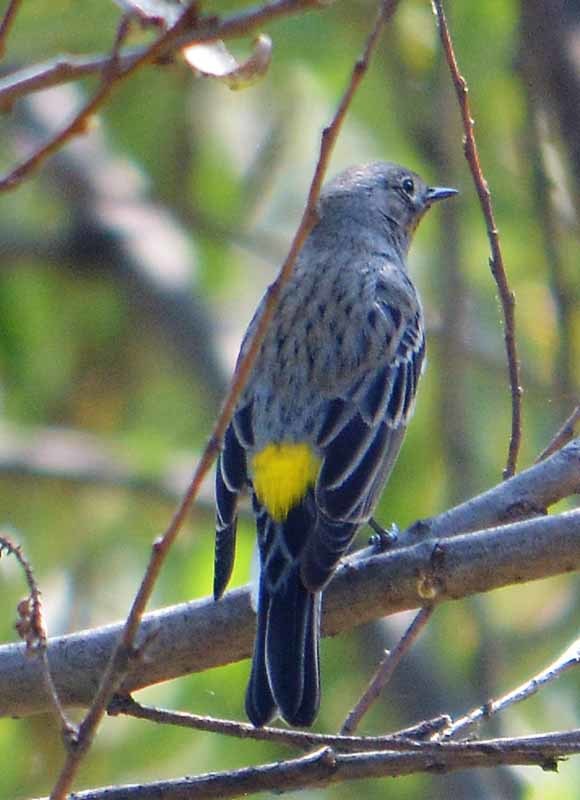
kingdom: Animalia
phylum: Chordata
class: Aves
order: Passeriformes
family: Parulidae
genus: Setophaga
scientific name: Setophaga coronata
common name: Myrtle warbler
